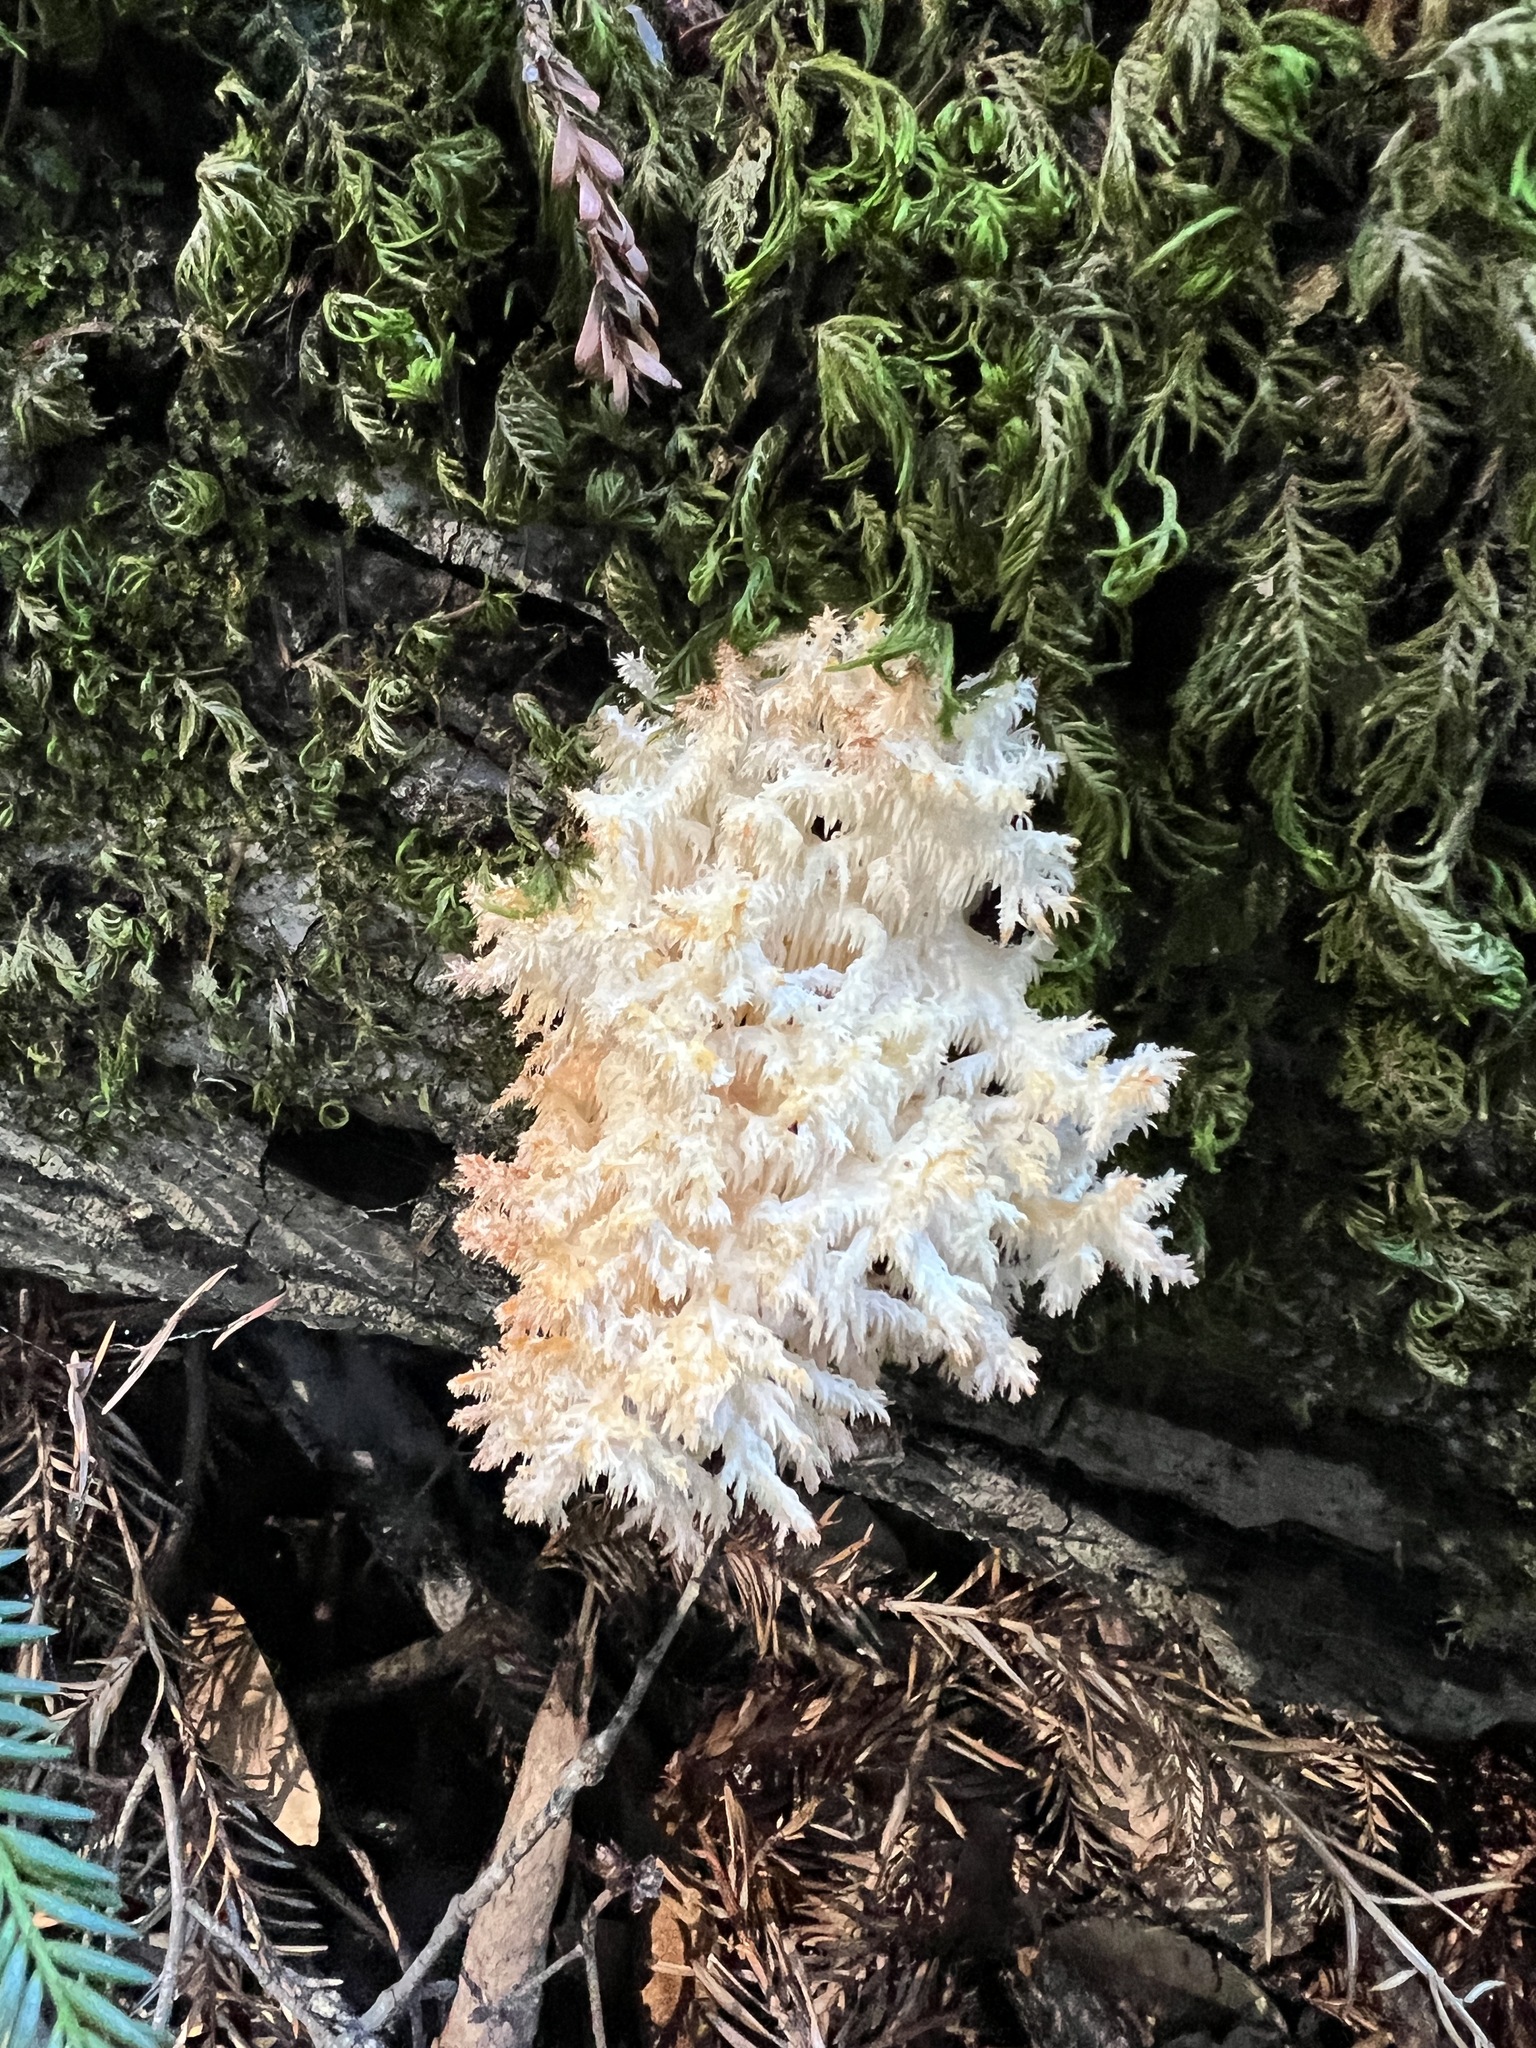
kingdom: Fungi
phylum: Basidiomycota
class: Agaricomycetes
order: Russulales
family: Hericiaceae
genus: Hericium
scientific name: Hericium coralloides
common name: Coral tooth
